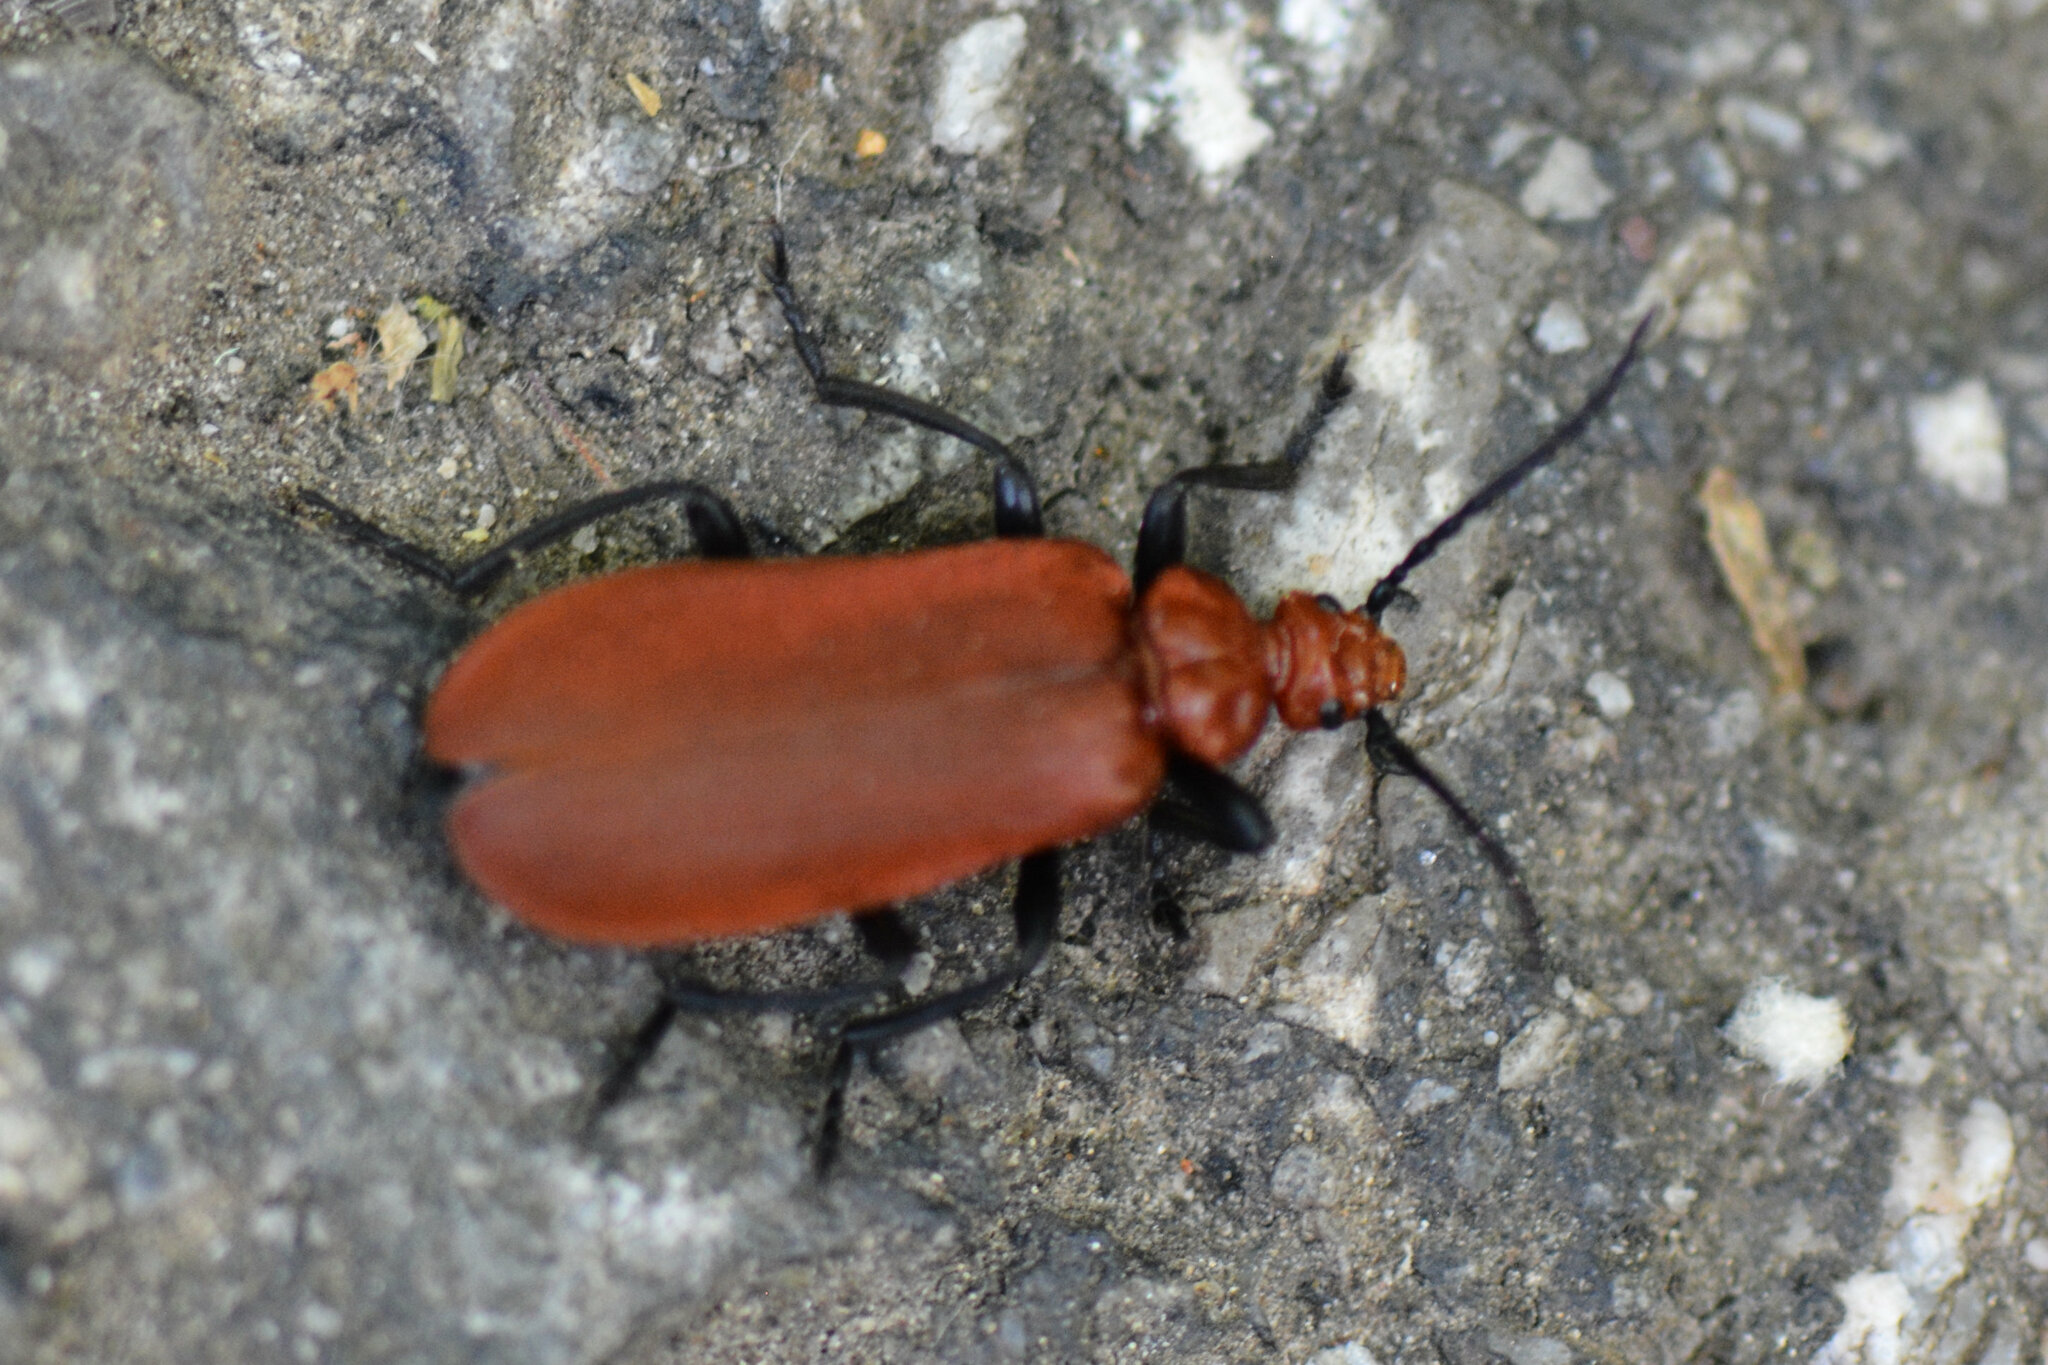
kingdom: Animalia
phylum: Arthropoda
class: Insecta
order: Coleoptera
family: Pyrochroidae
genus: Pyrochroa
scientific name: Pyrochroa serraticornis
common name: Red-headed cardinal beetle
